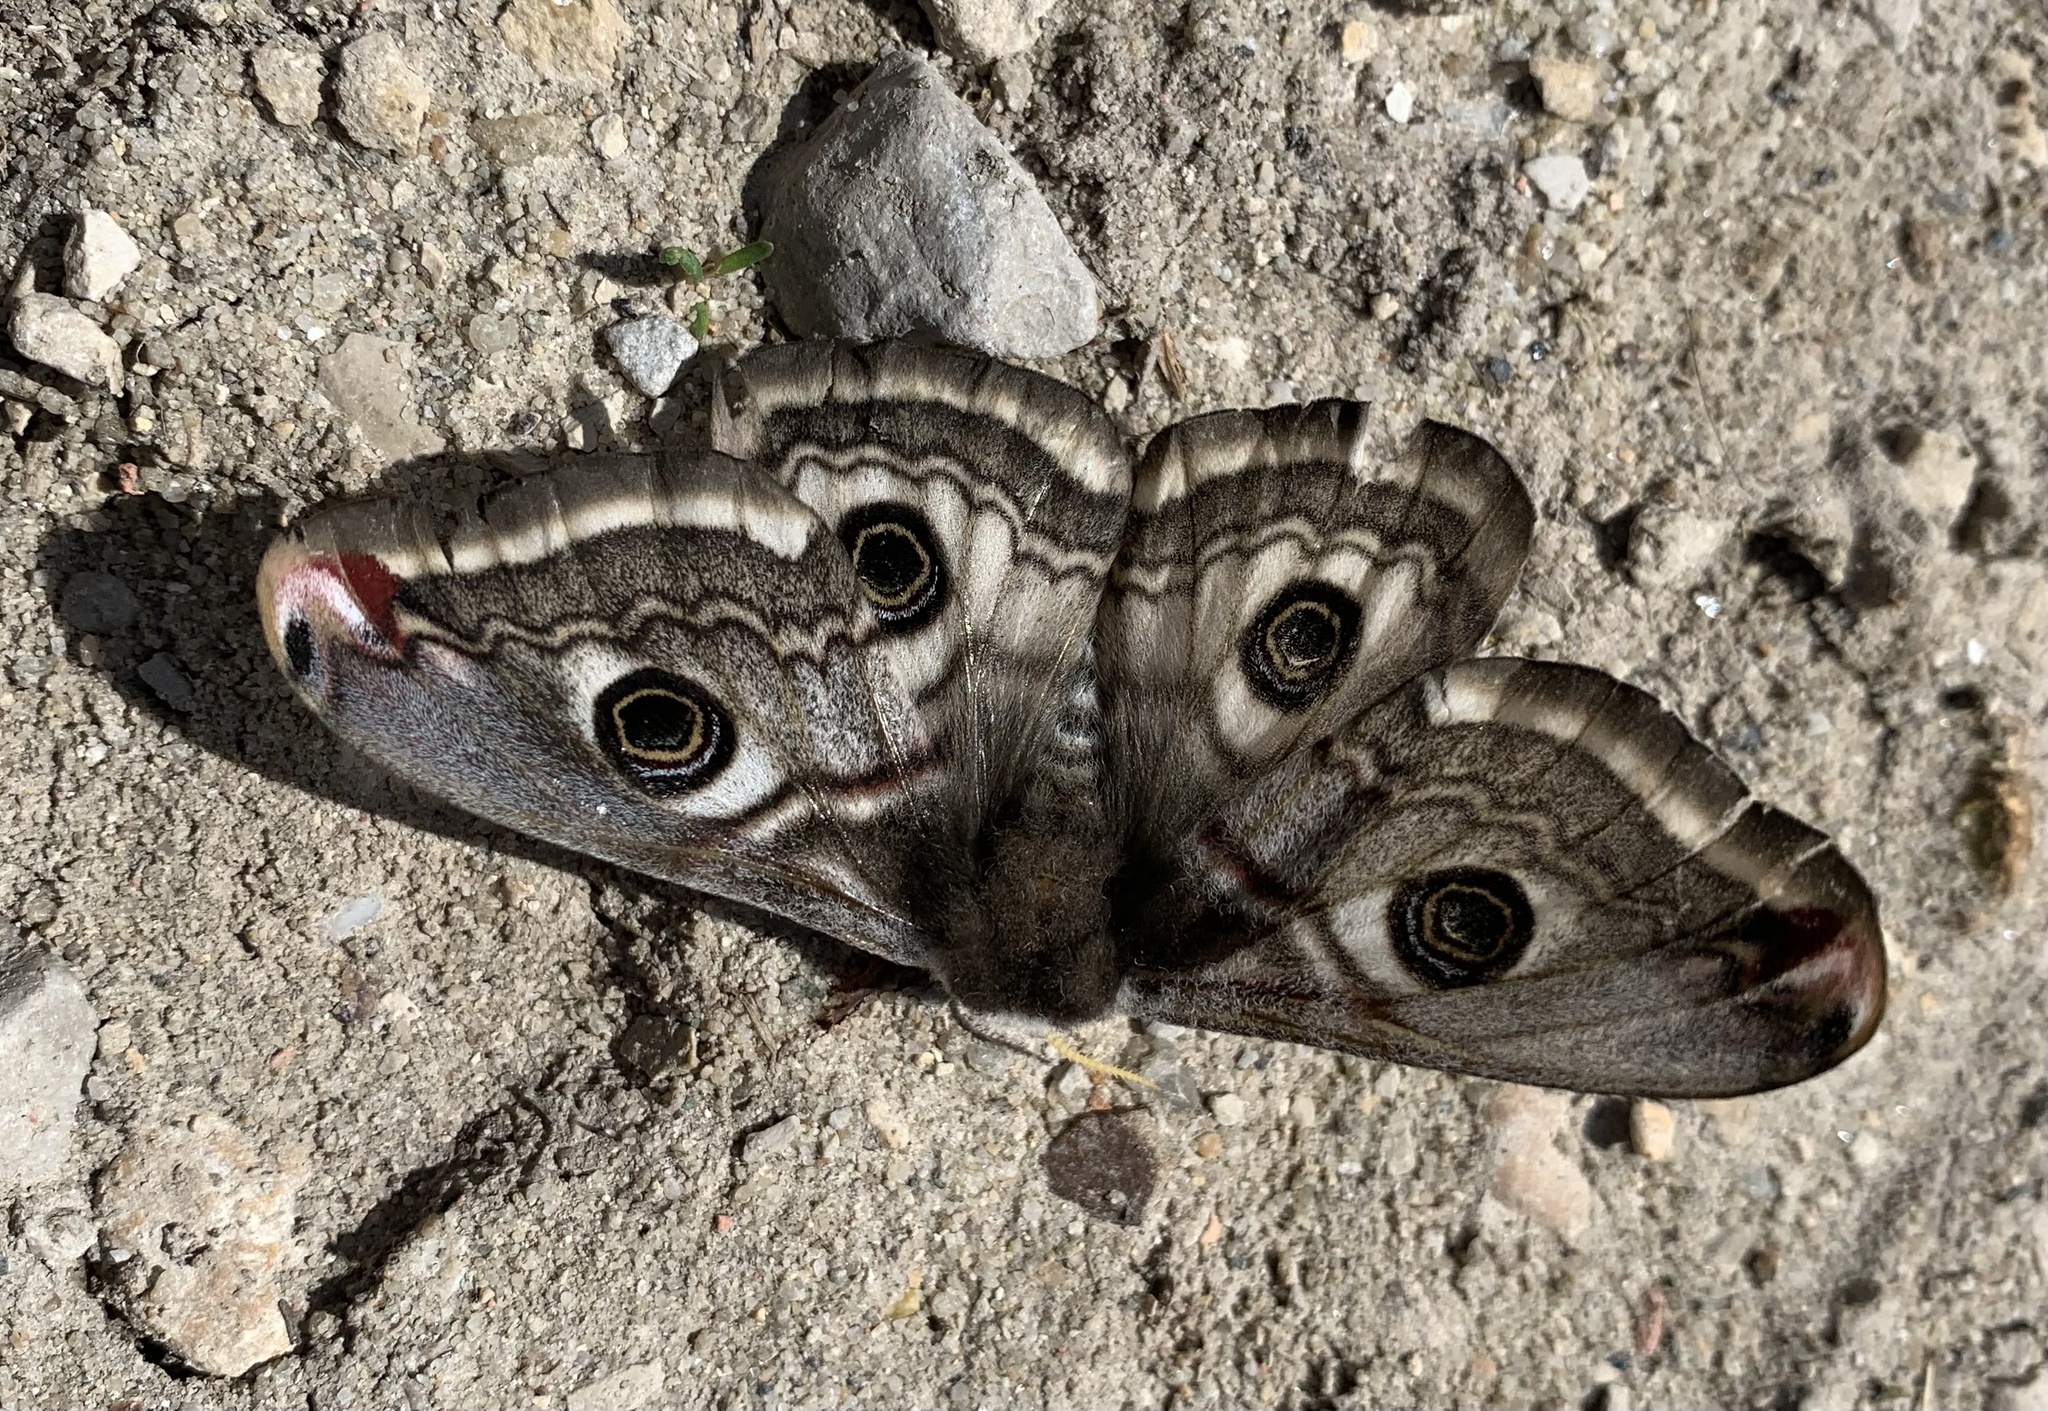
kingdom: Animalia
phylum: Arthropoda
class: Insecta
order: Lepidoptera
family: Saturniidae
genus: Saturnia
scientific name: Saturnia pavonia
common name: Emperor moth
